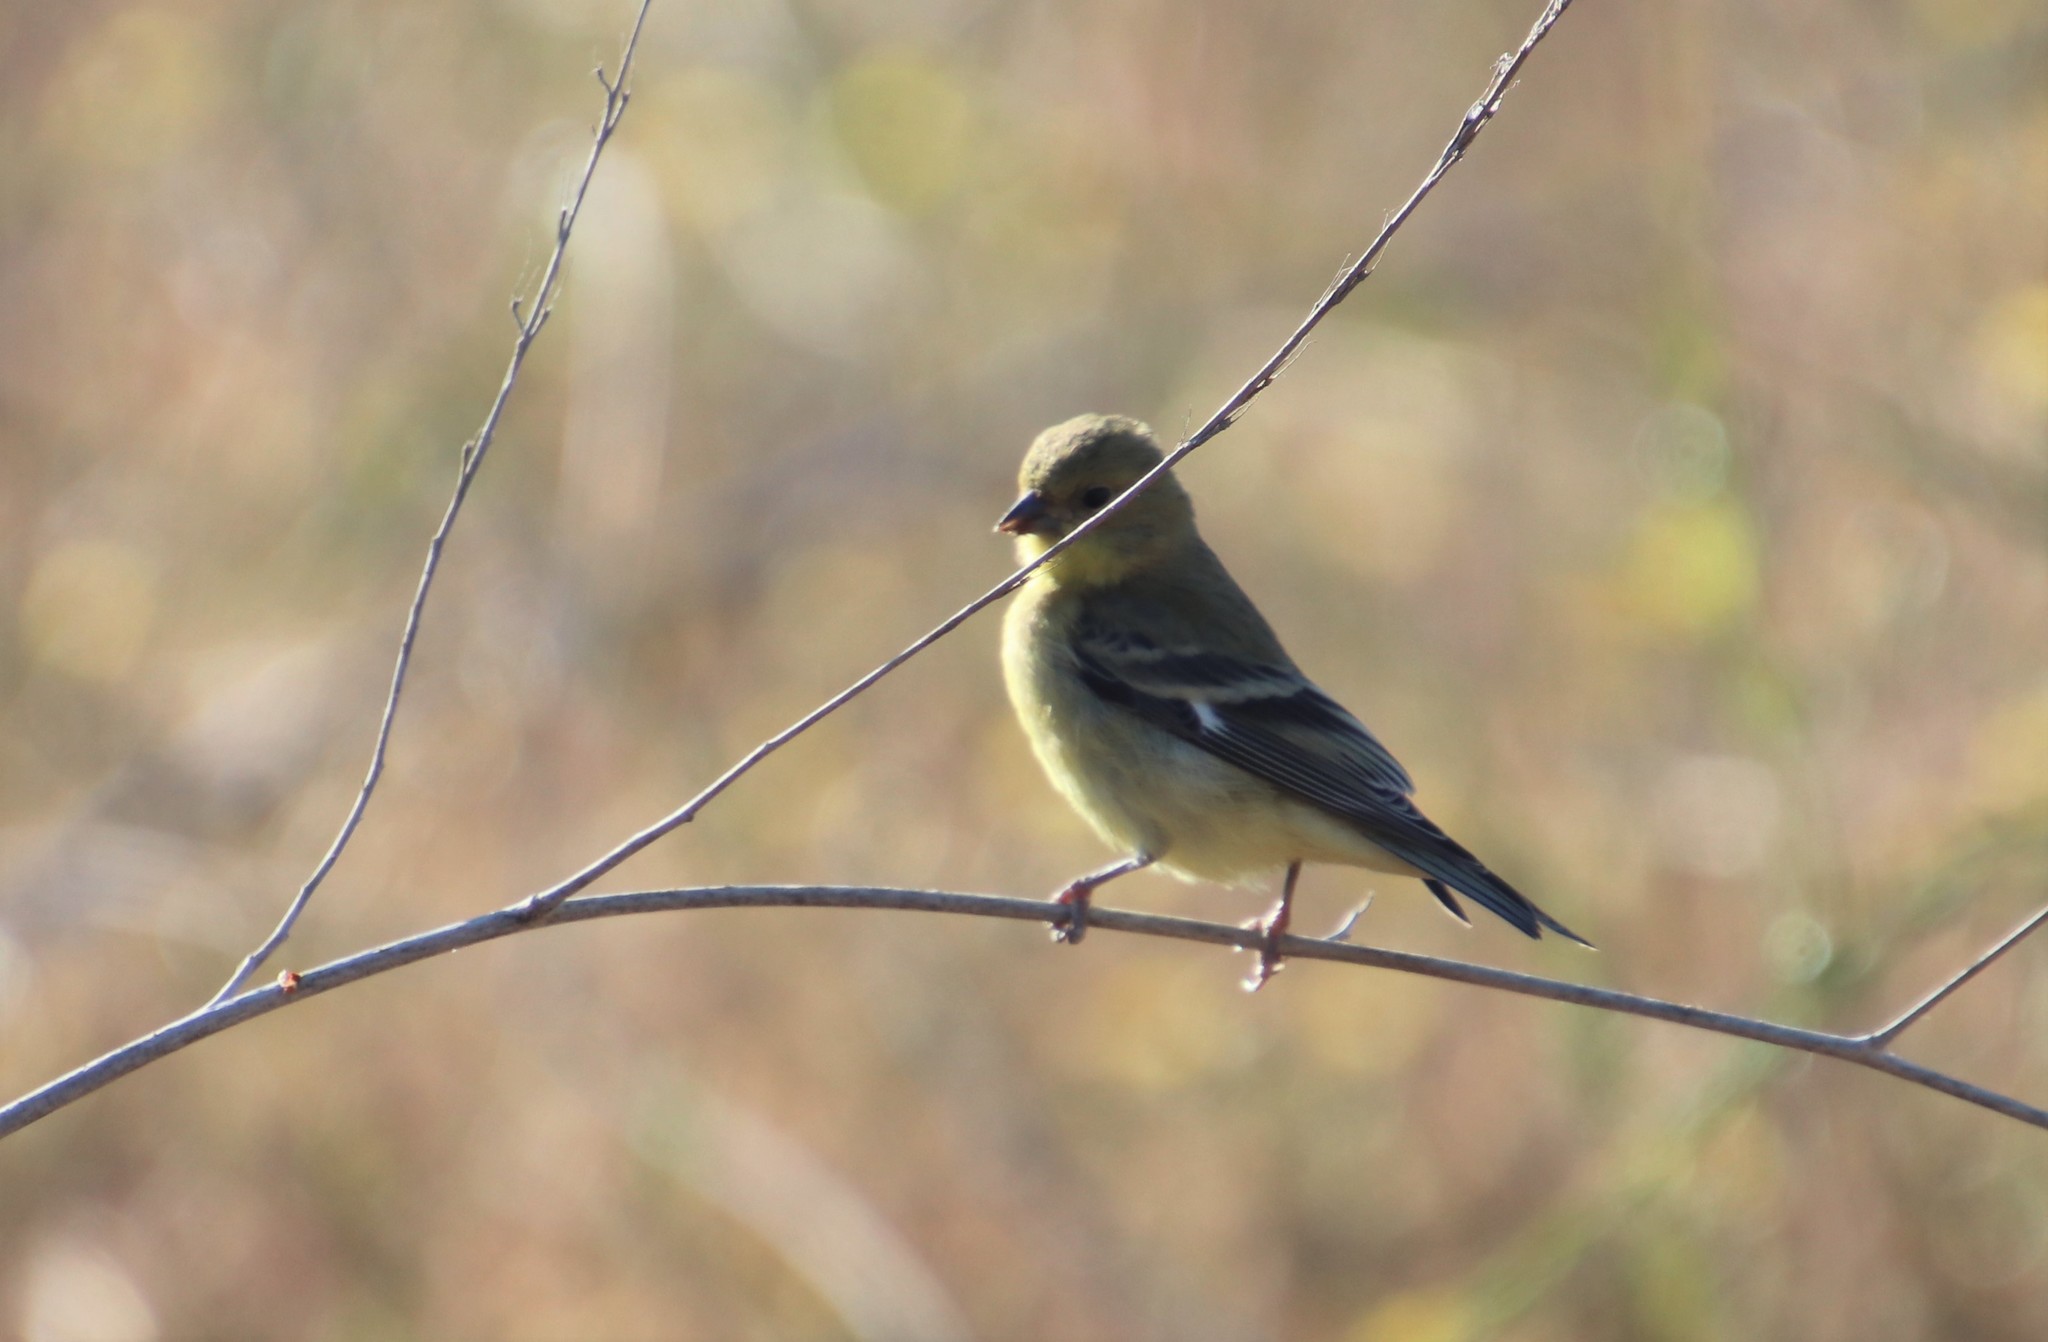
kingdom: Animalia
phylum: Chordata
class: Aves
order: Passeriformes
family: Fringillidae
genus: Spinus
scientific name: Spinus psaltria
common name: Lesser goldfinch
